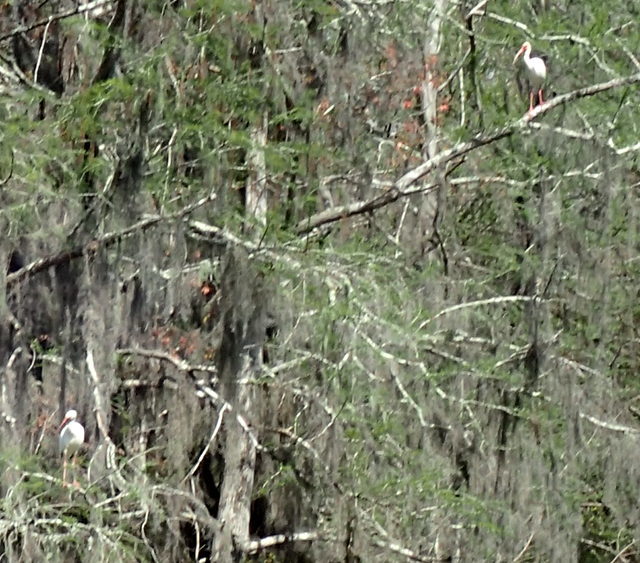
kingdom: Animalia
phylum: Chordata
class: Aves
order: Pelecaniformes
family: Threskiornithidae
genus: Eudocimus
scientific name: Eudocimus albus
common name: White ibis
